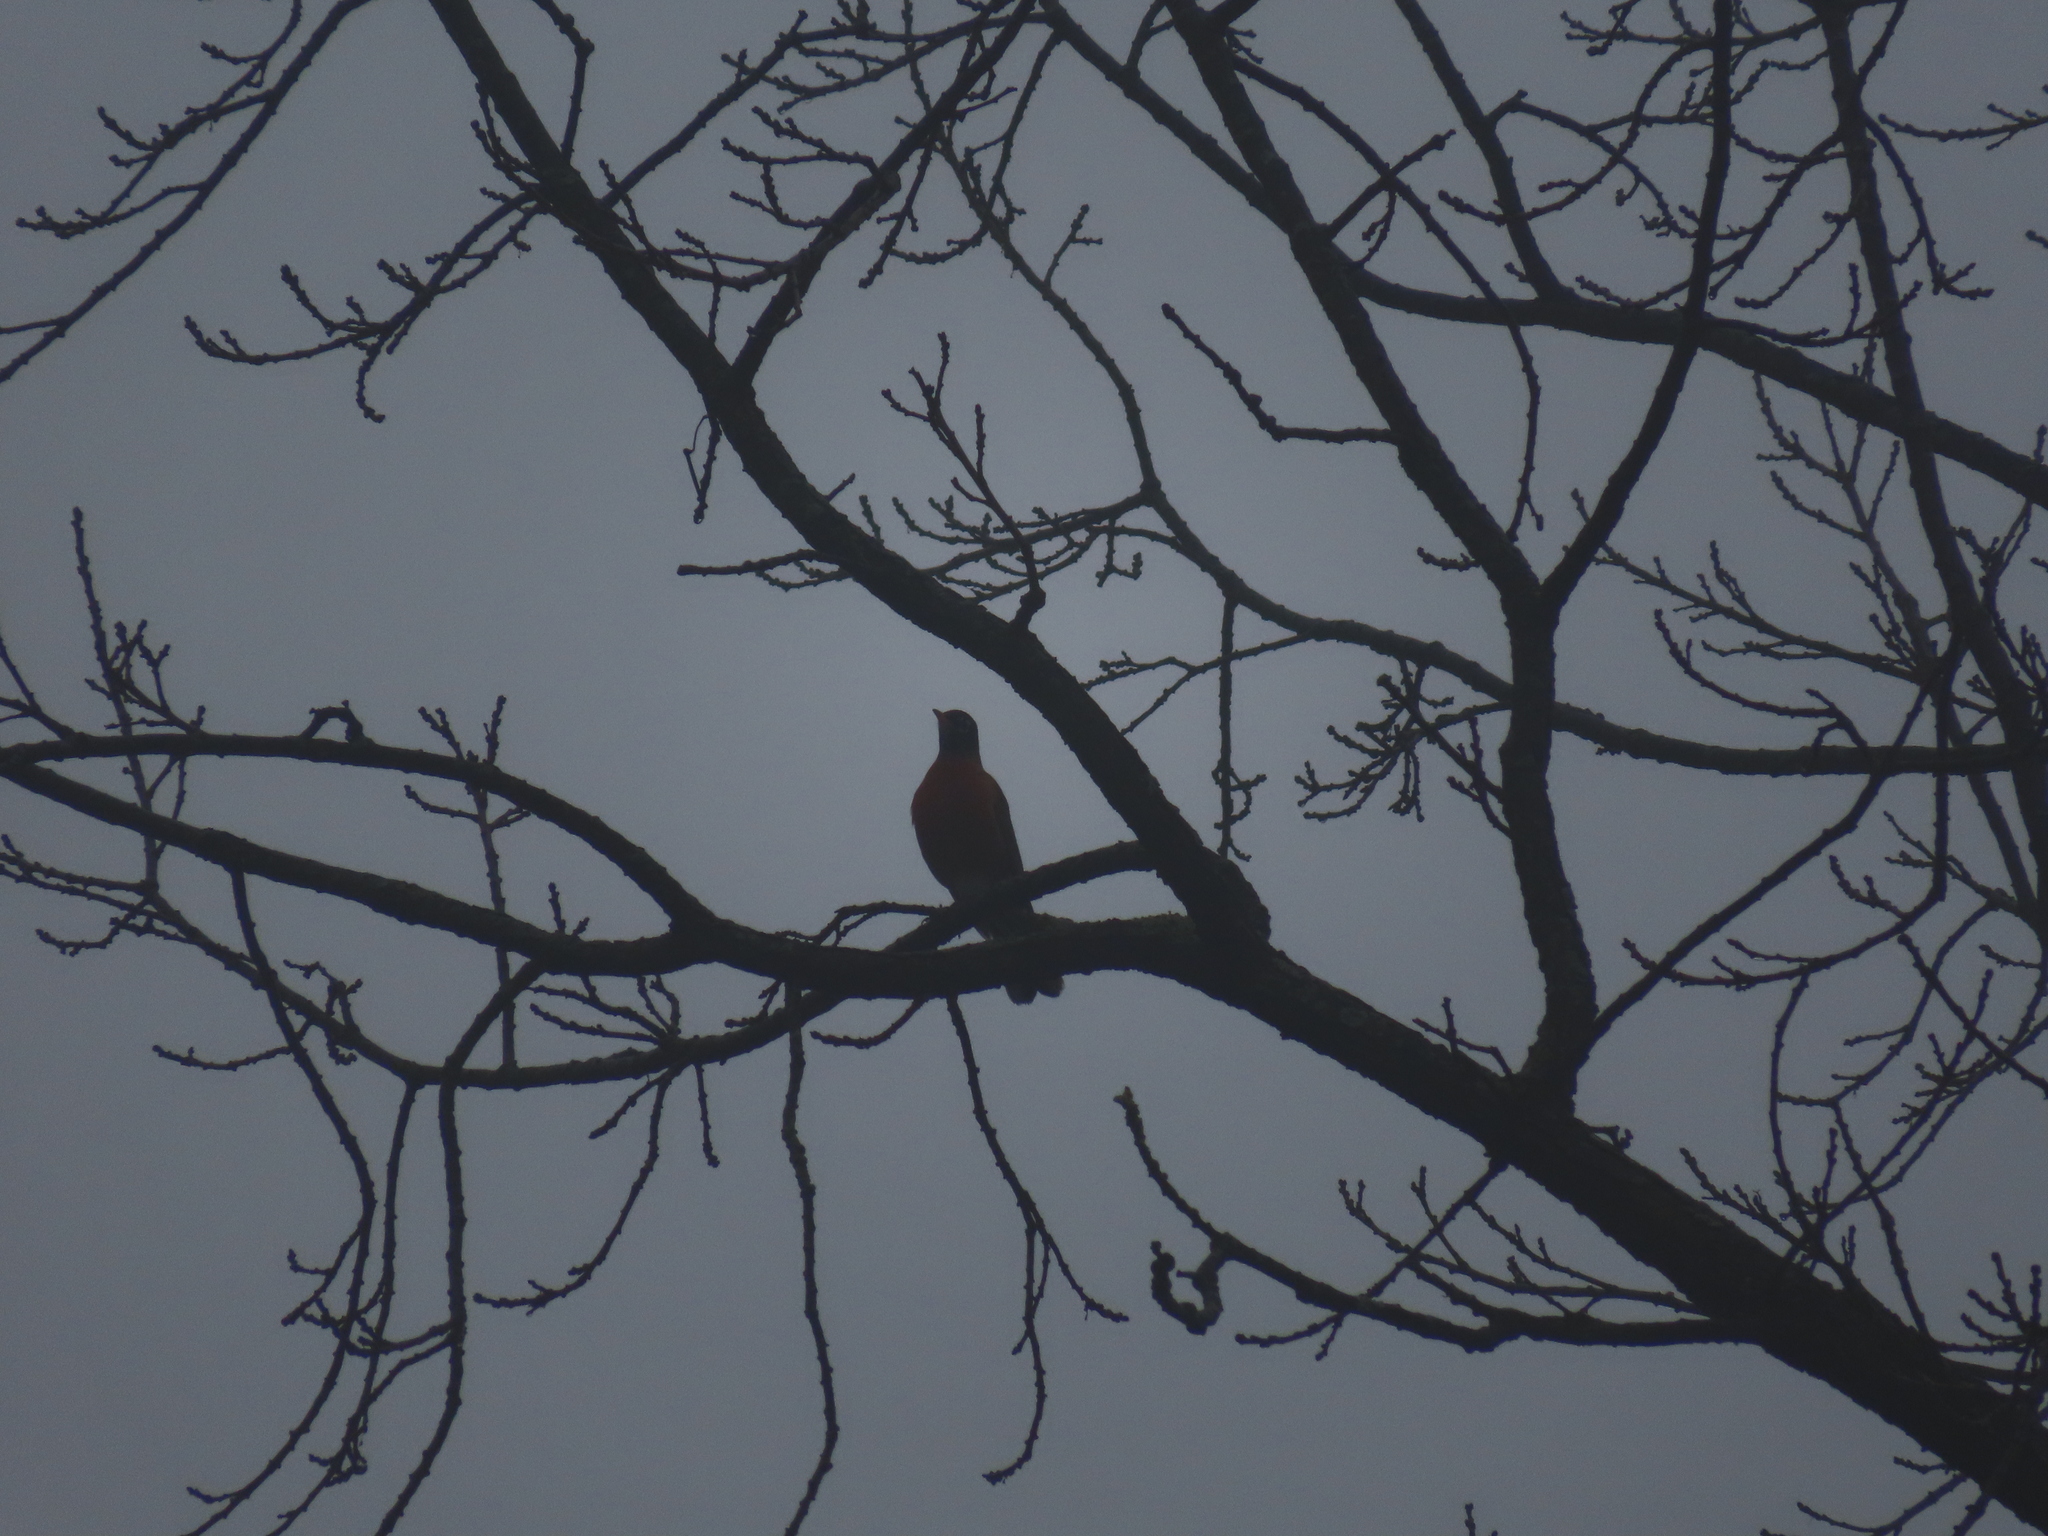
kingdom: Animalia
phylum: Chordata
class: Aves
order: Passeriformes
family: Turdidae
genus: Turdus
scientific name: Turdus migratorius
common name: American robin
